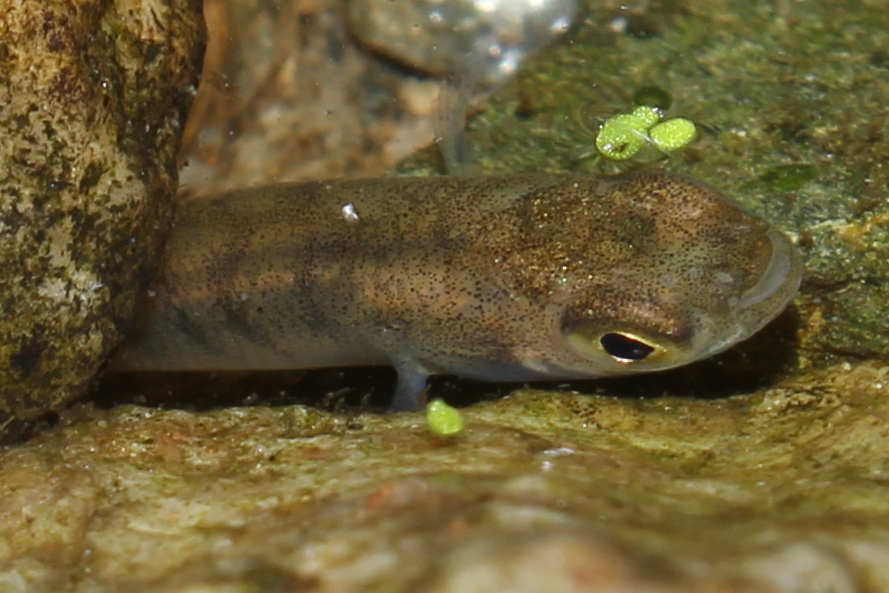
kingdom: Animalia
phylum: Chordata
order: Cyprinodontiformes
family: Fundulidae
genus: Fundulus
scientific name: Fundulus diaphanus
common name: Banded killifish
